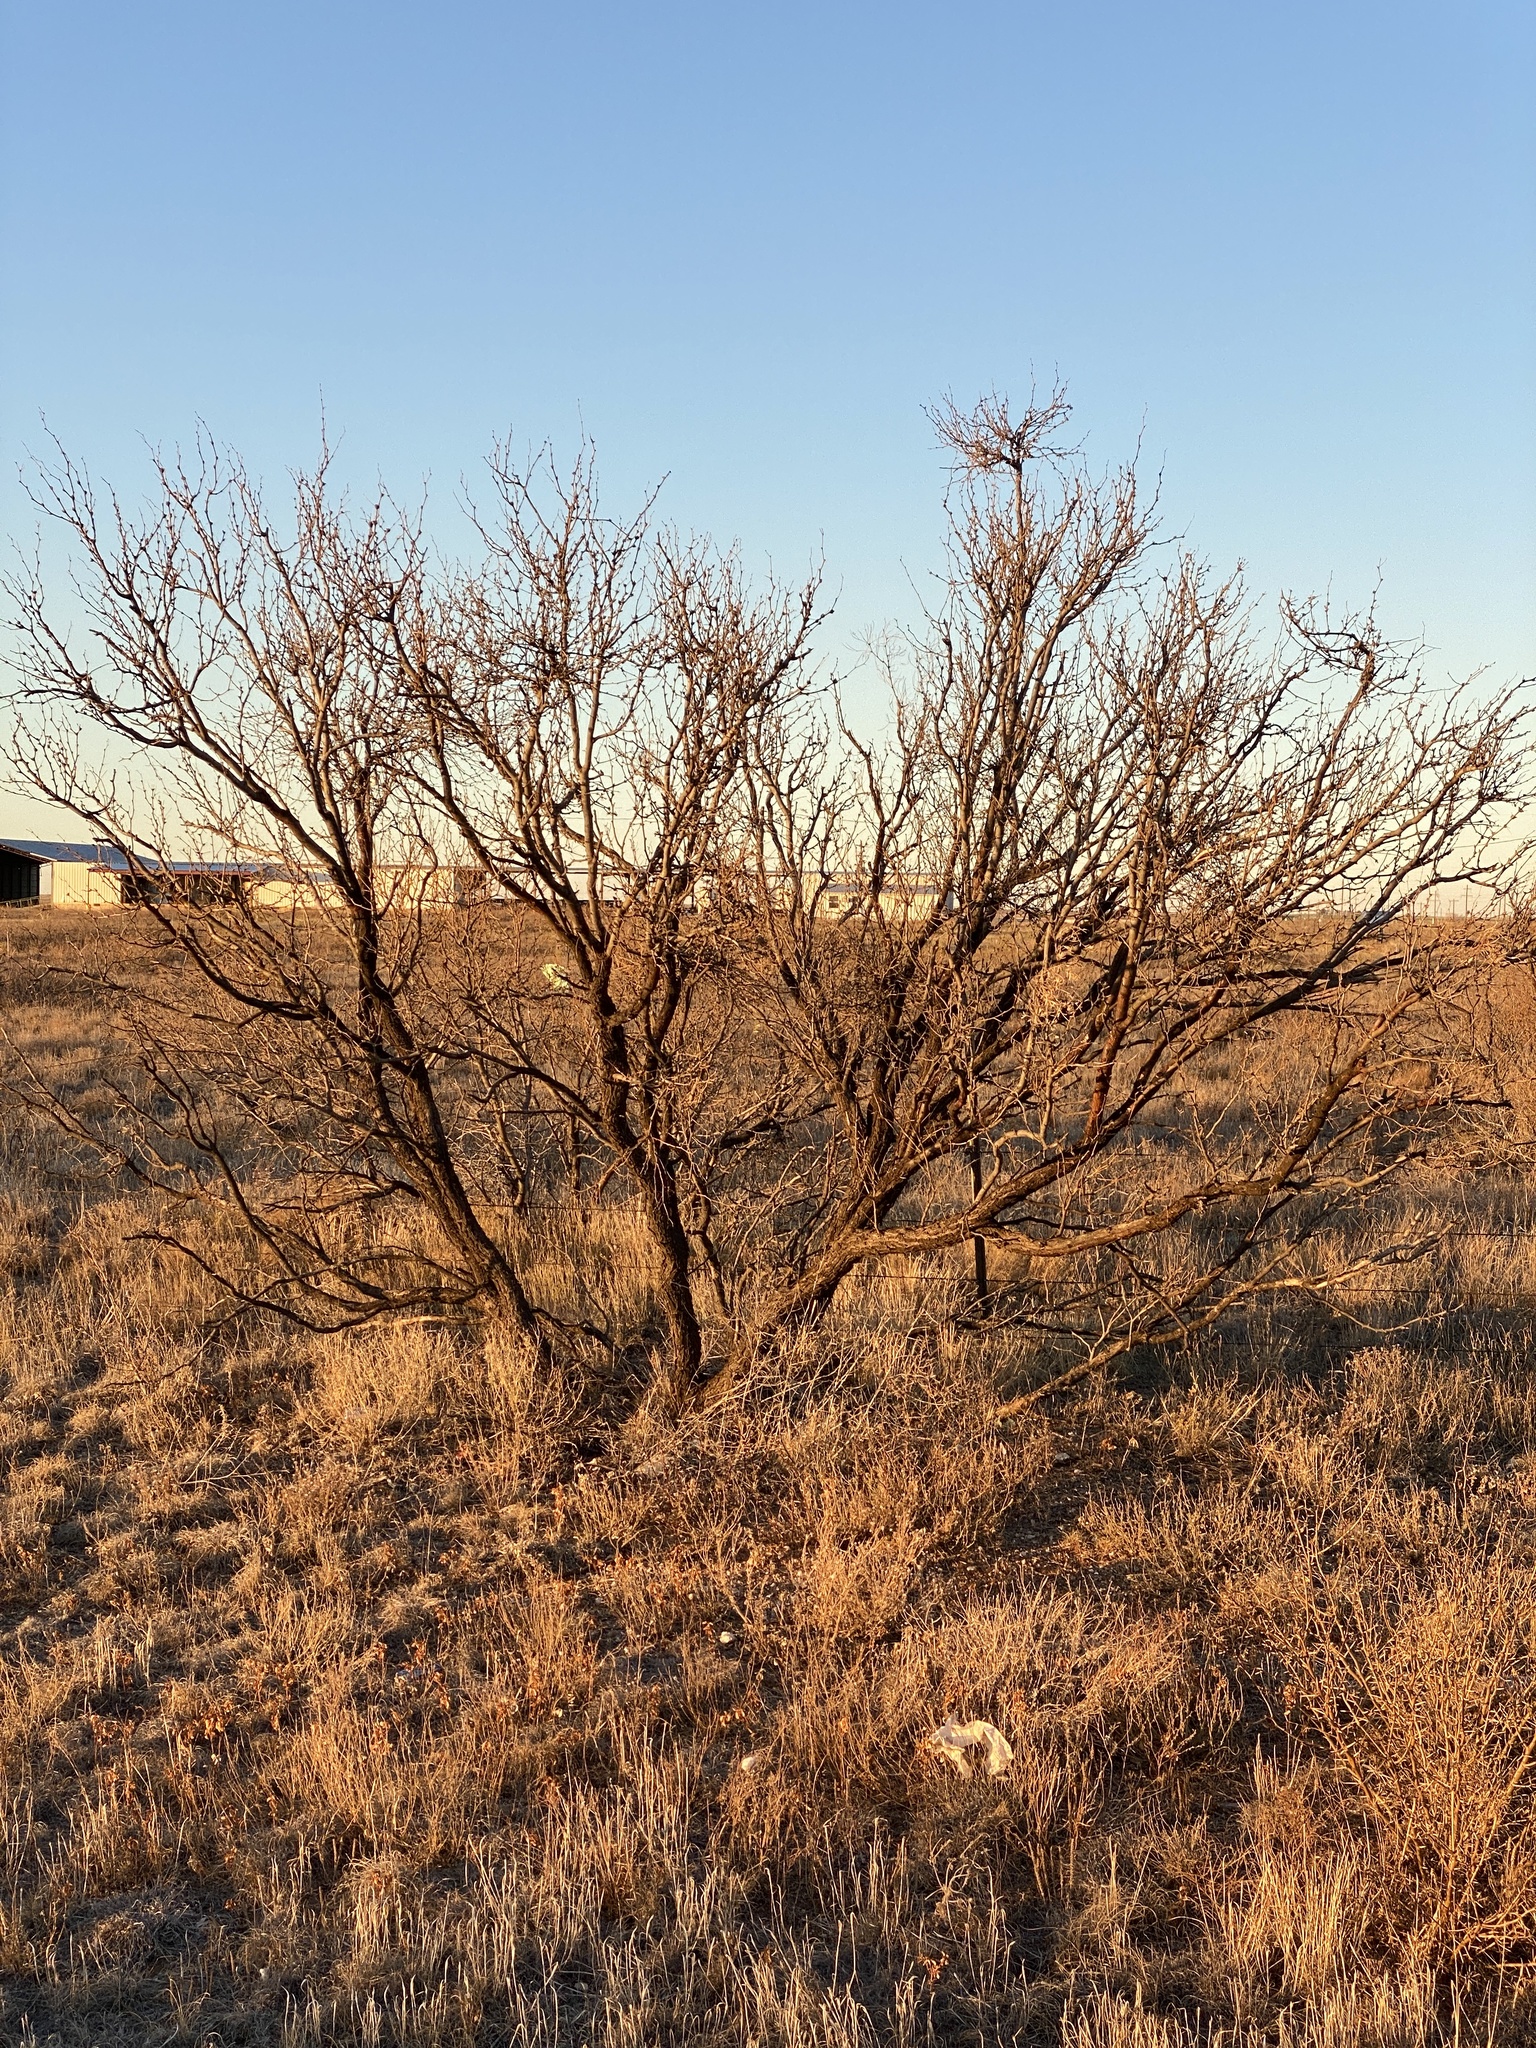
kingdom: Plantae
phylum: Tracheophyta
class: Magnoliopsida
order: Fabales
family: Fabaceae
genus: Prosopis
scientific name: Prosopis glandulosa
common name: Honey mesquite
